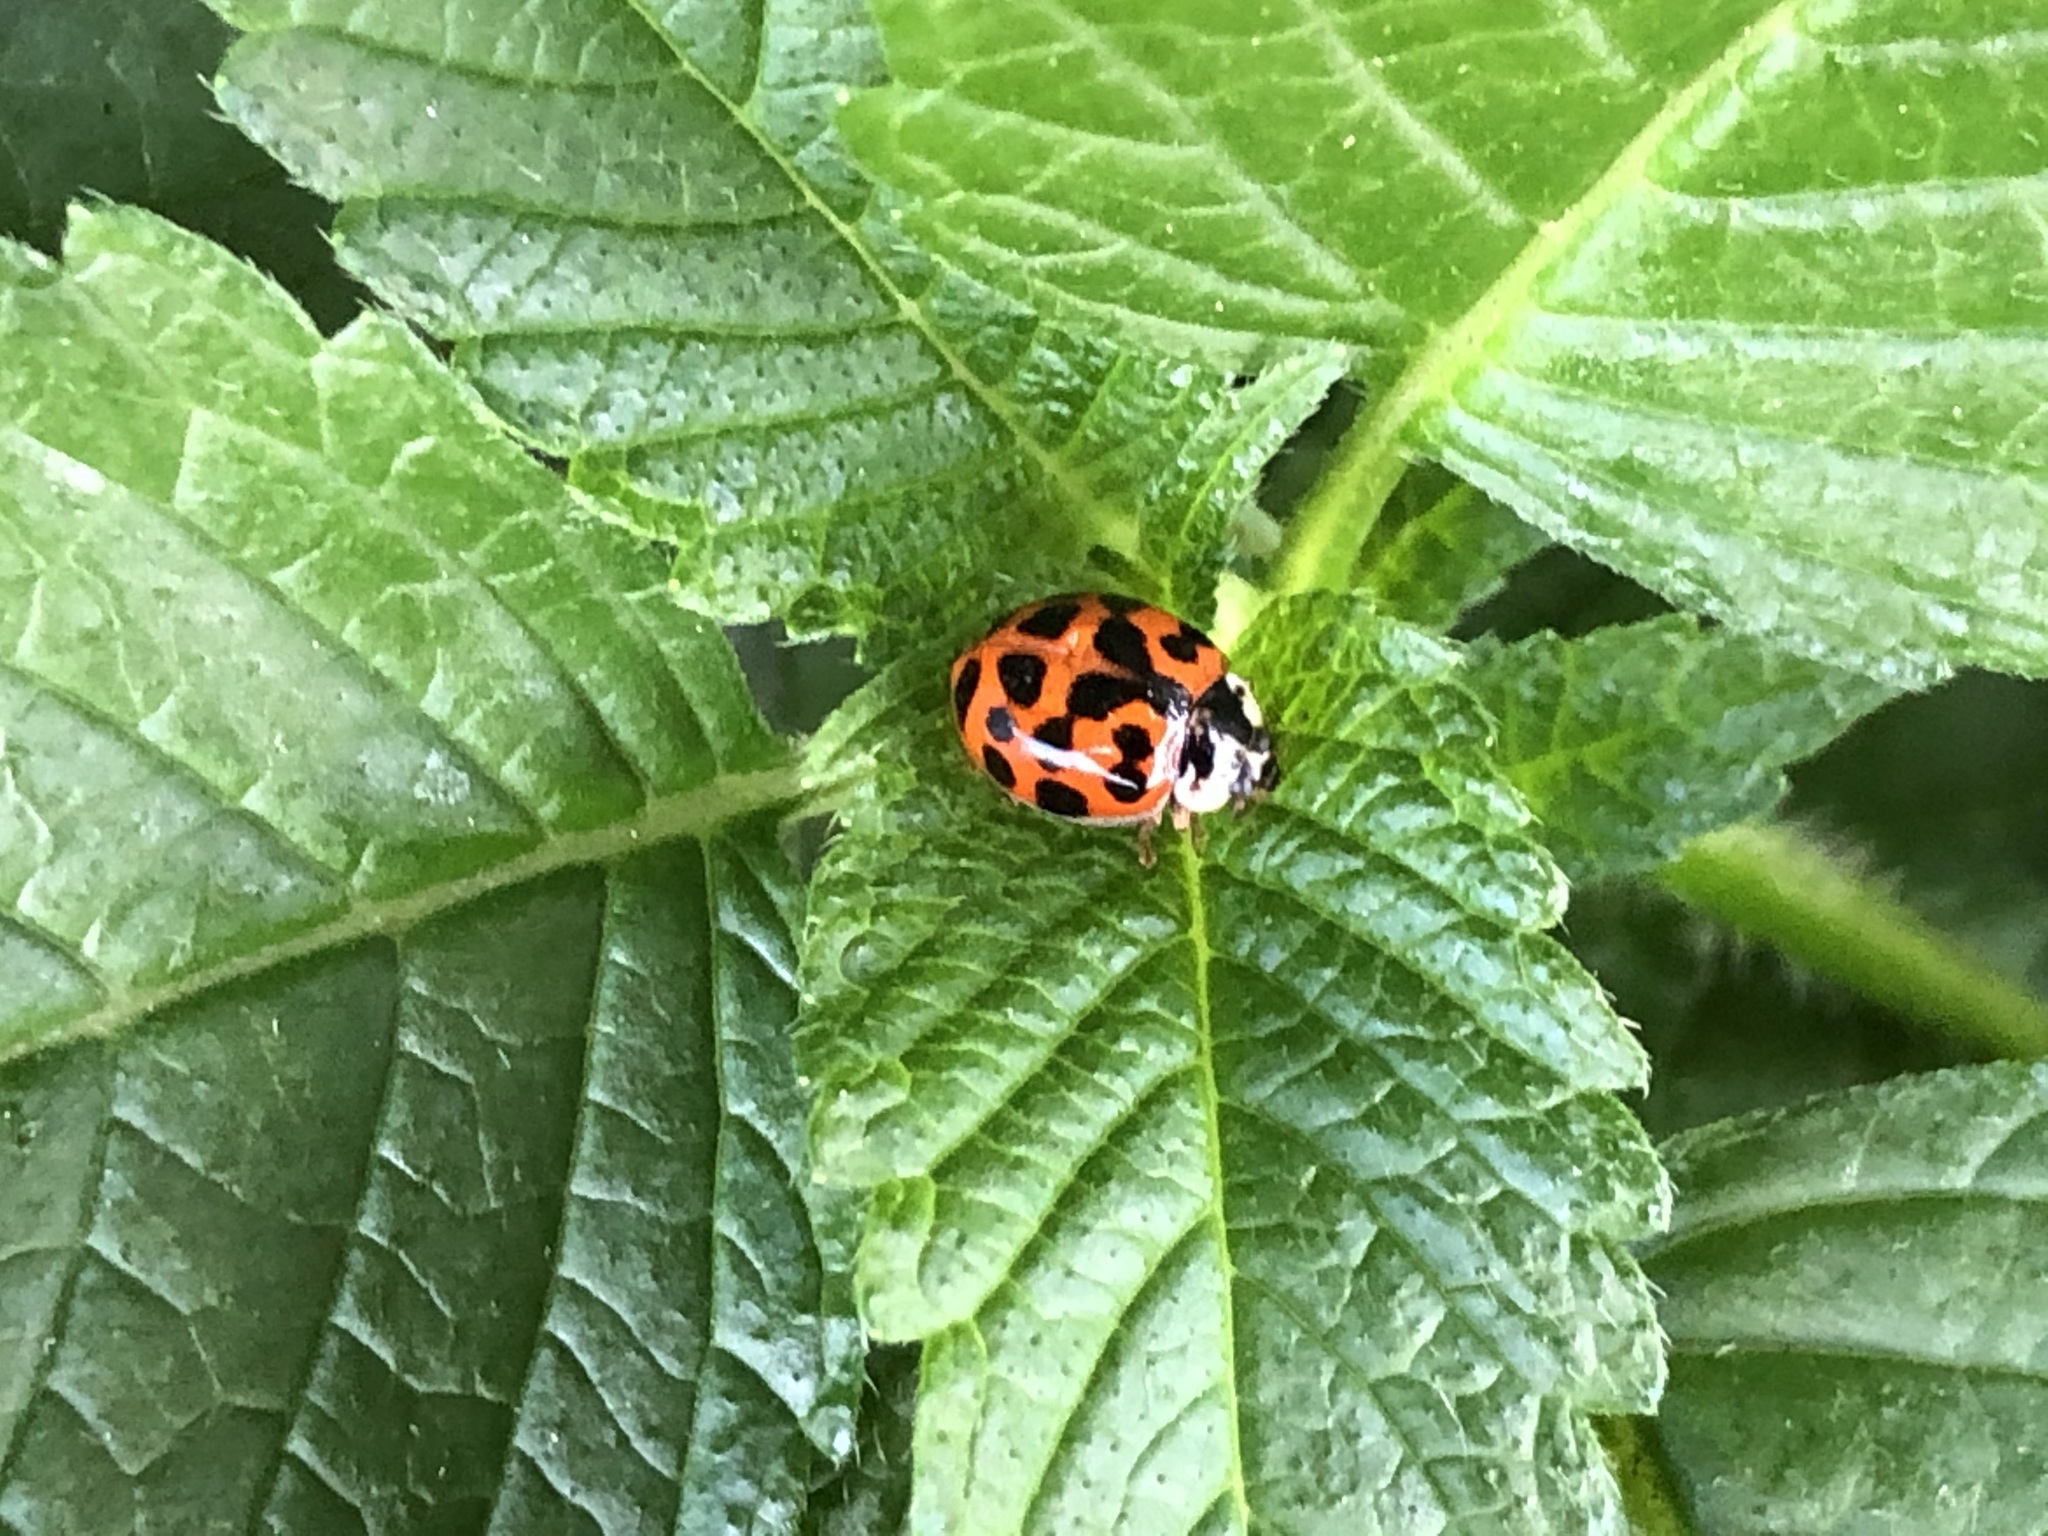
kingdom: Animalia
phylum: Arthropoda
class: Insecta
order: Coleoptera
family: Coccinellidae
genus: Harmonia
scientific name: Harmonia axyridis
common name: Harlequin ladybird
